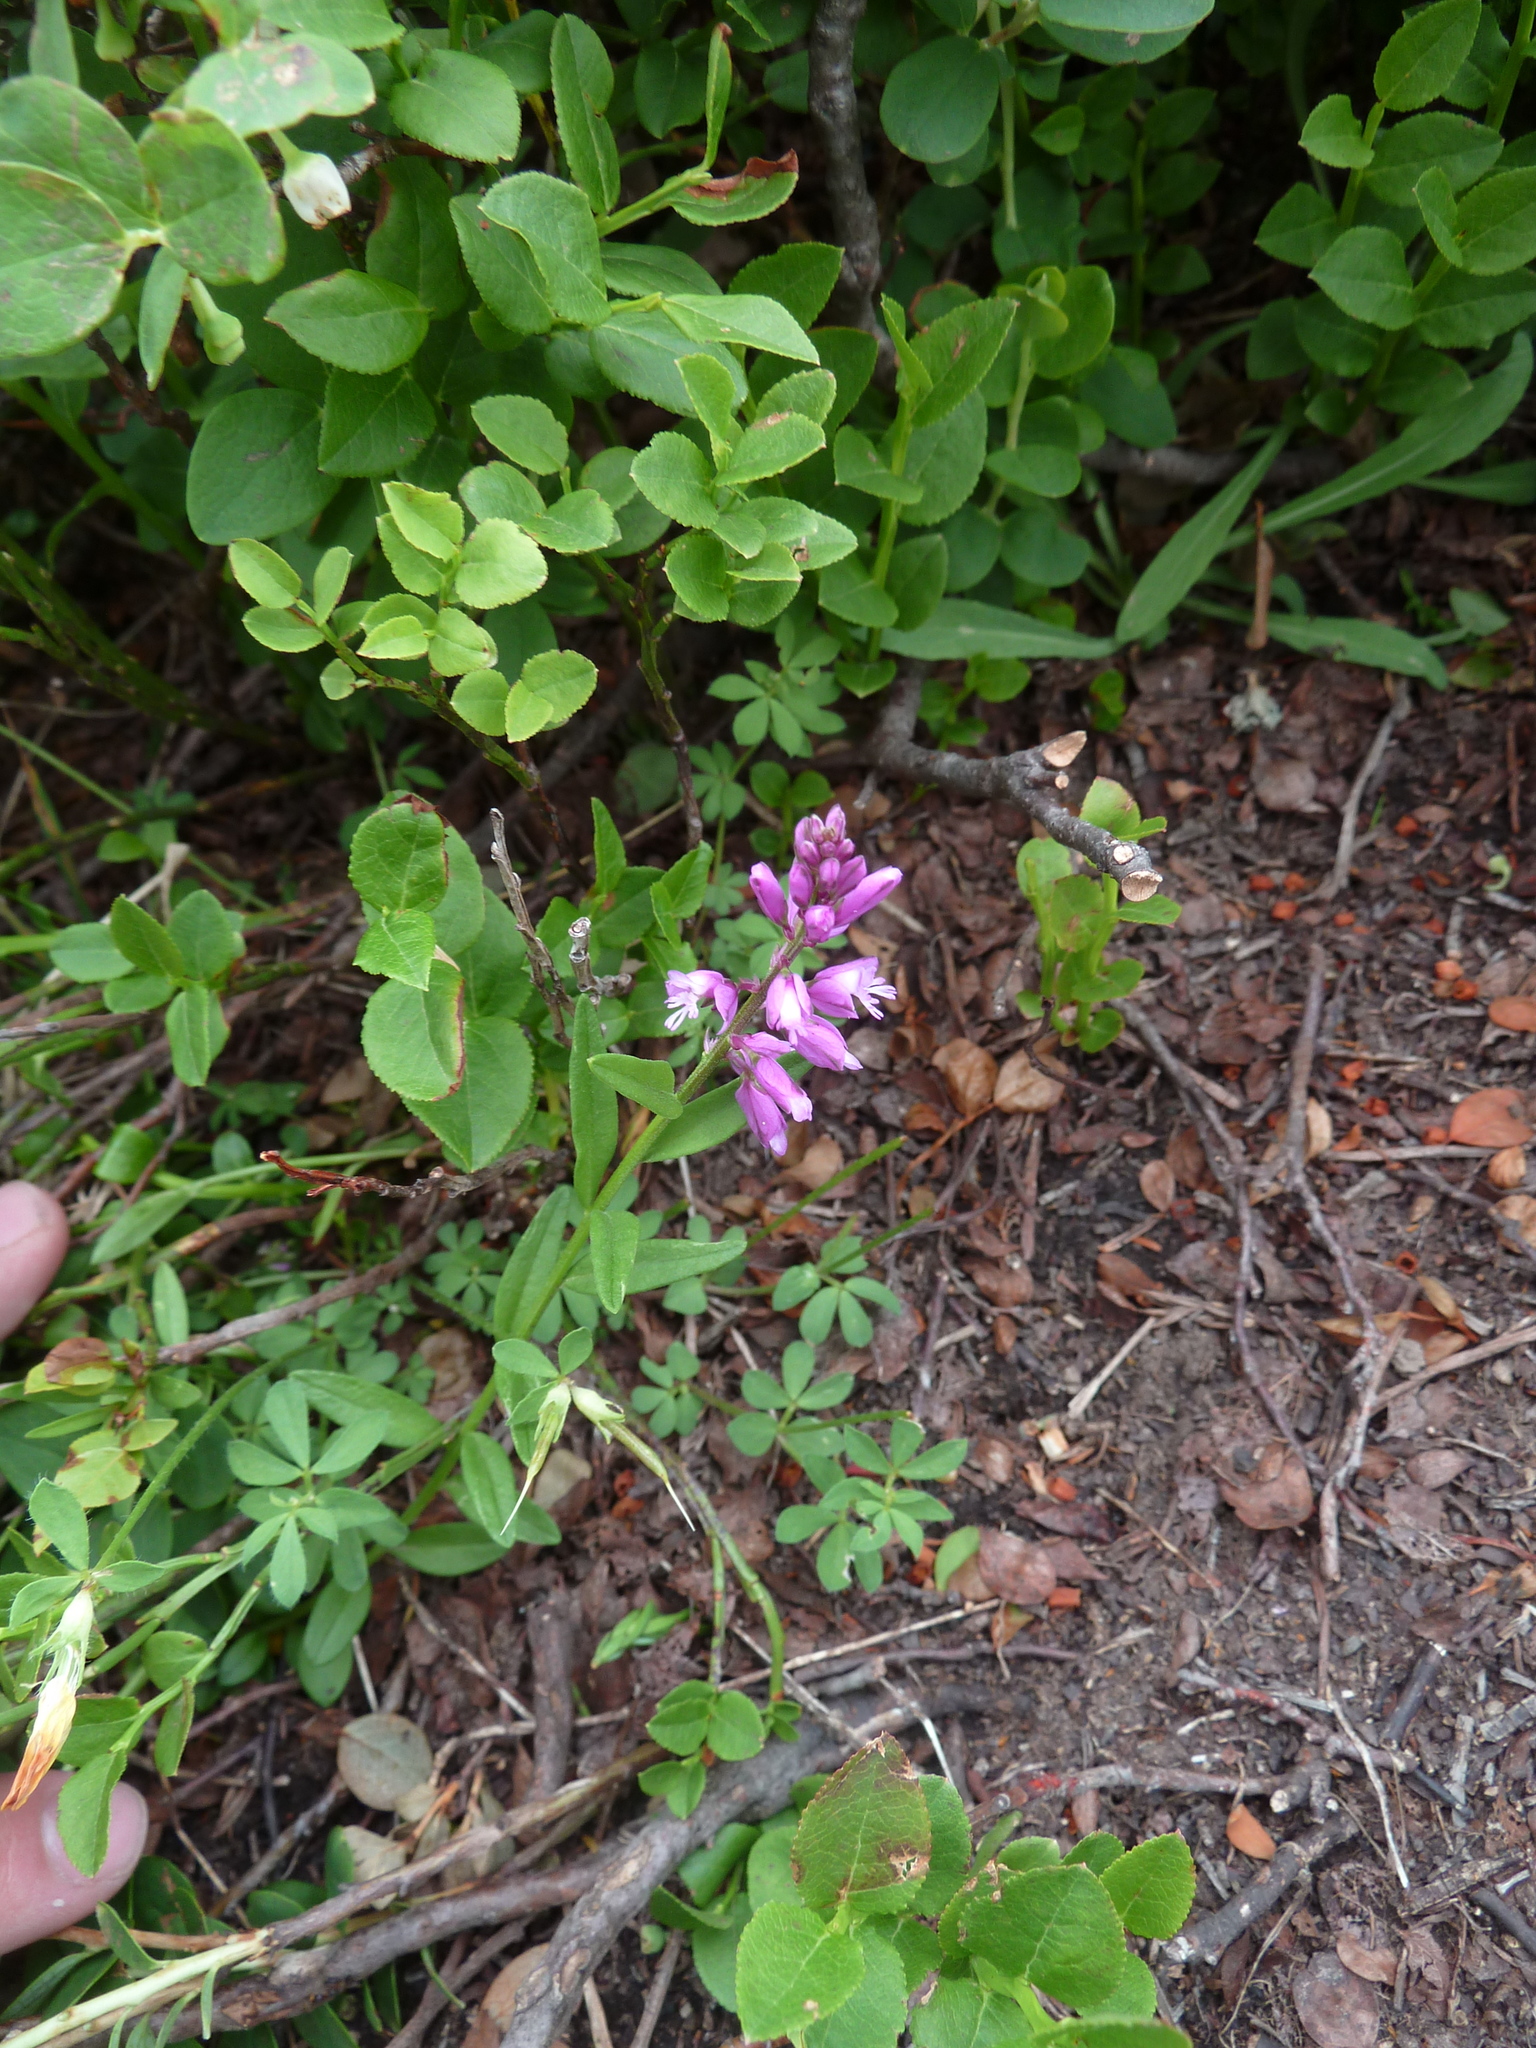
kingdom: Plantae
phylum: Tracheophyta
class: Magnoliopsida
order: Fabales
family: Polygalaceae
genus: Polygala
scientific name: Polygala vulgaris
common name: Common milkwort
